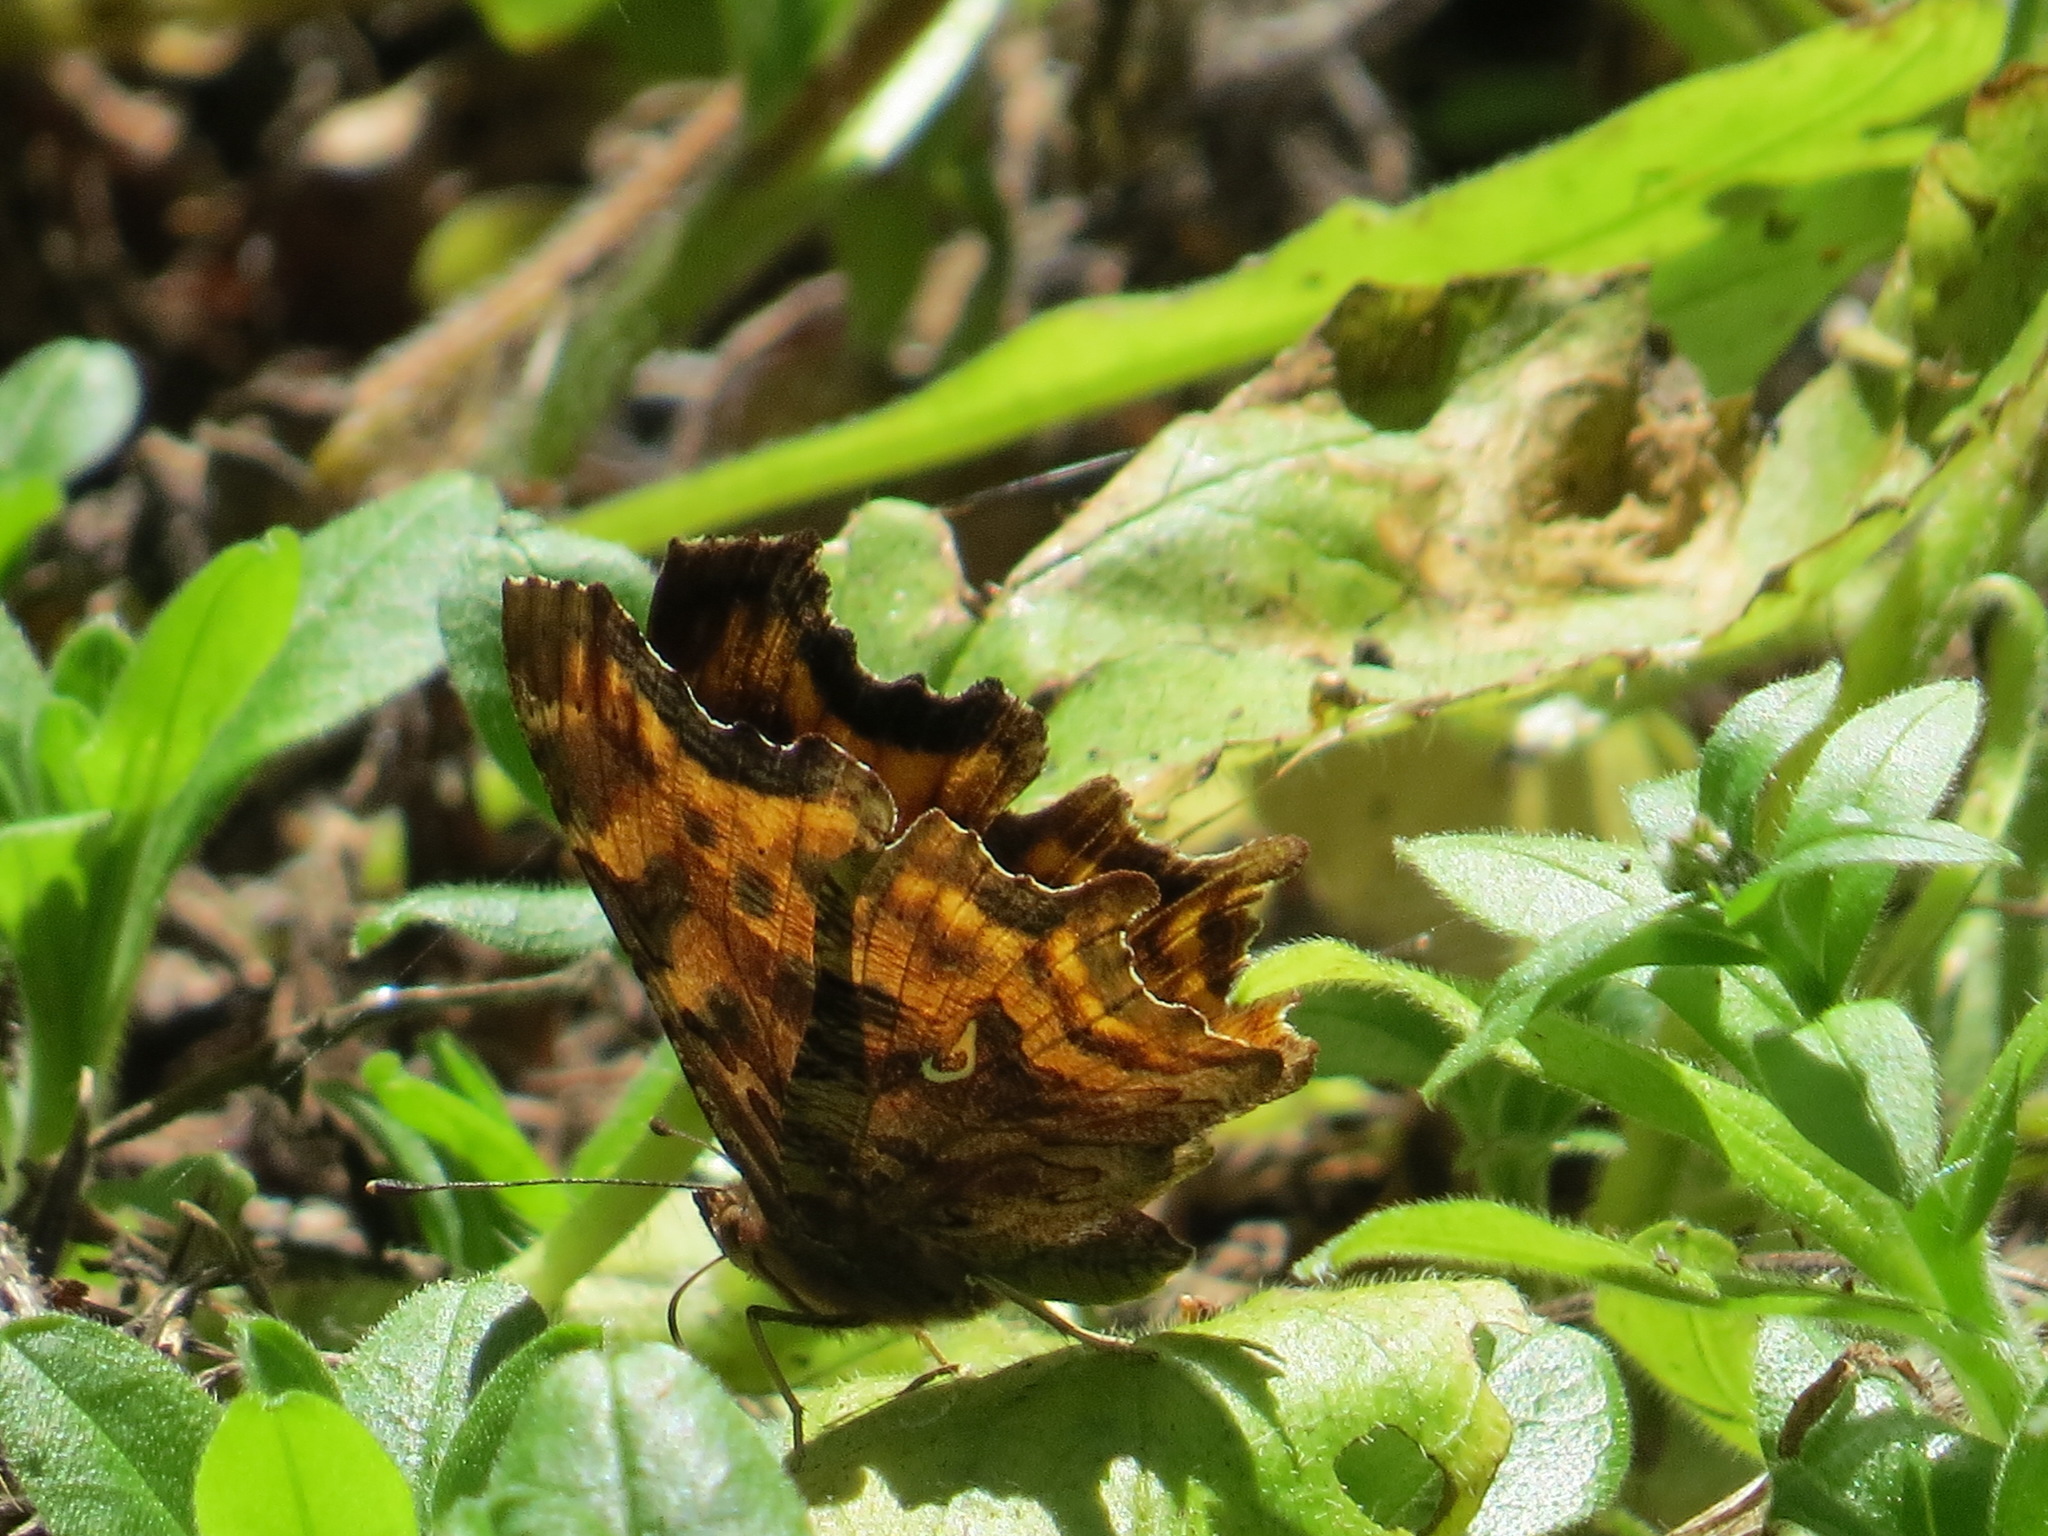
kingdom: Animalia
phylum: Arthropoda
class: Insecta
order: Lepidoptera
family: Nymphalidae
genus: Polygonia
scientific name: Polygonia satyrus
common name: Satyr angle wing
